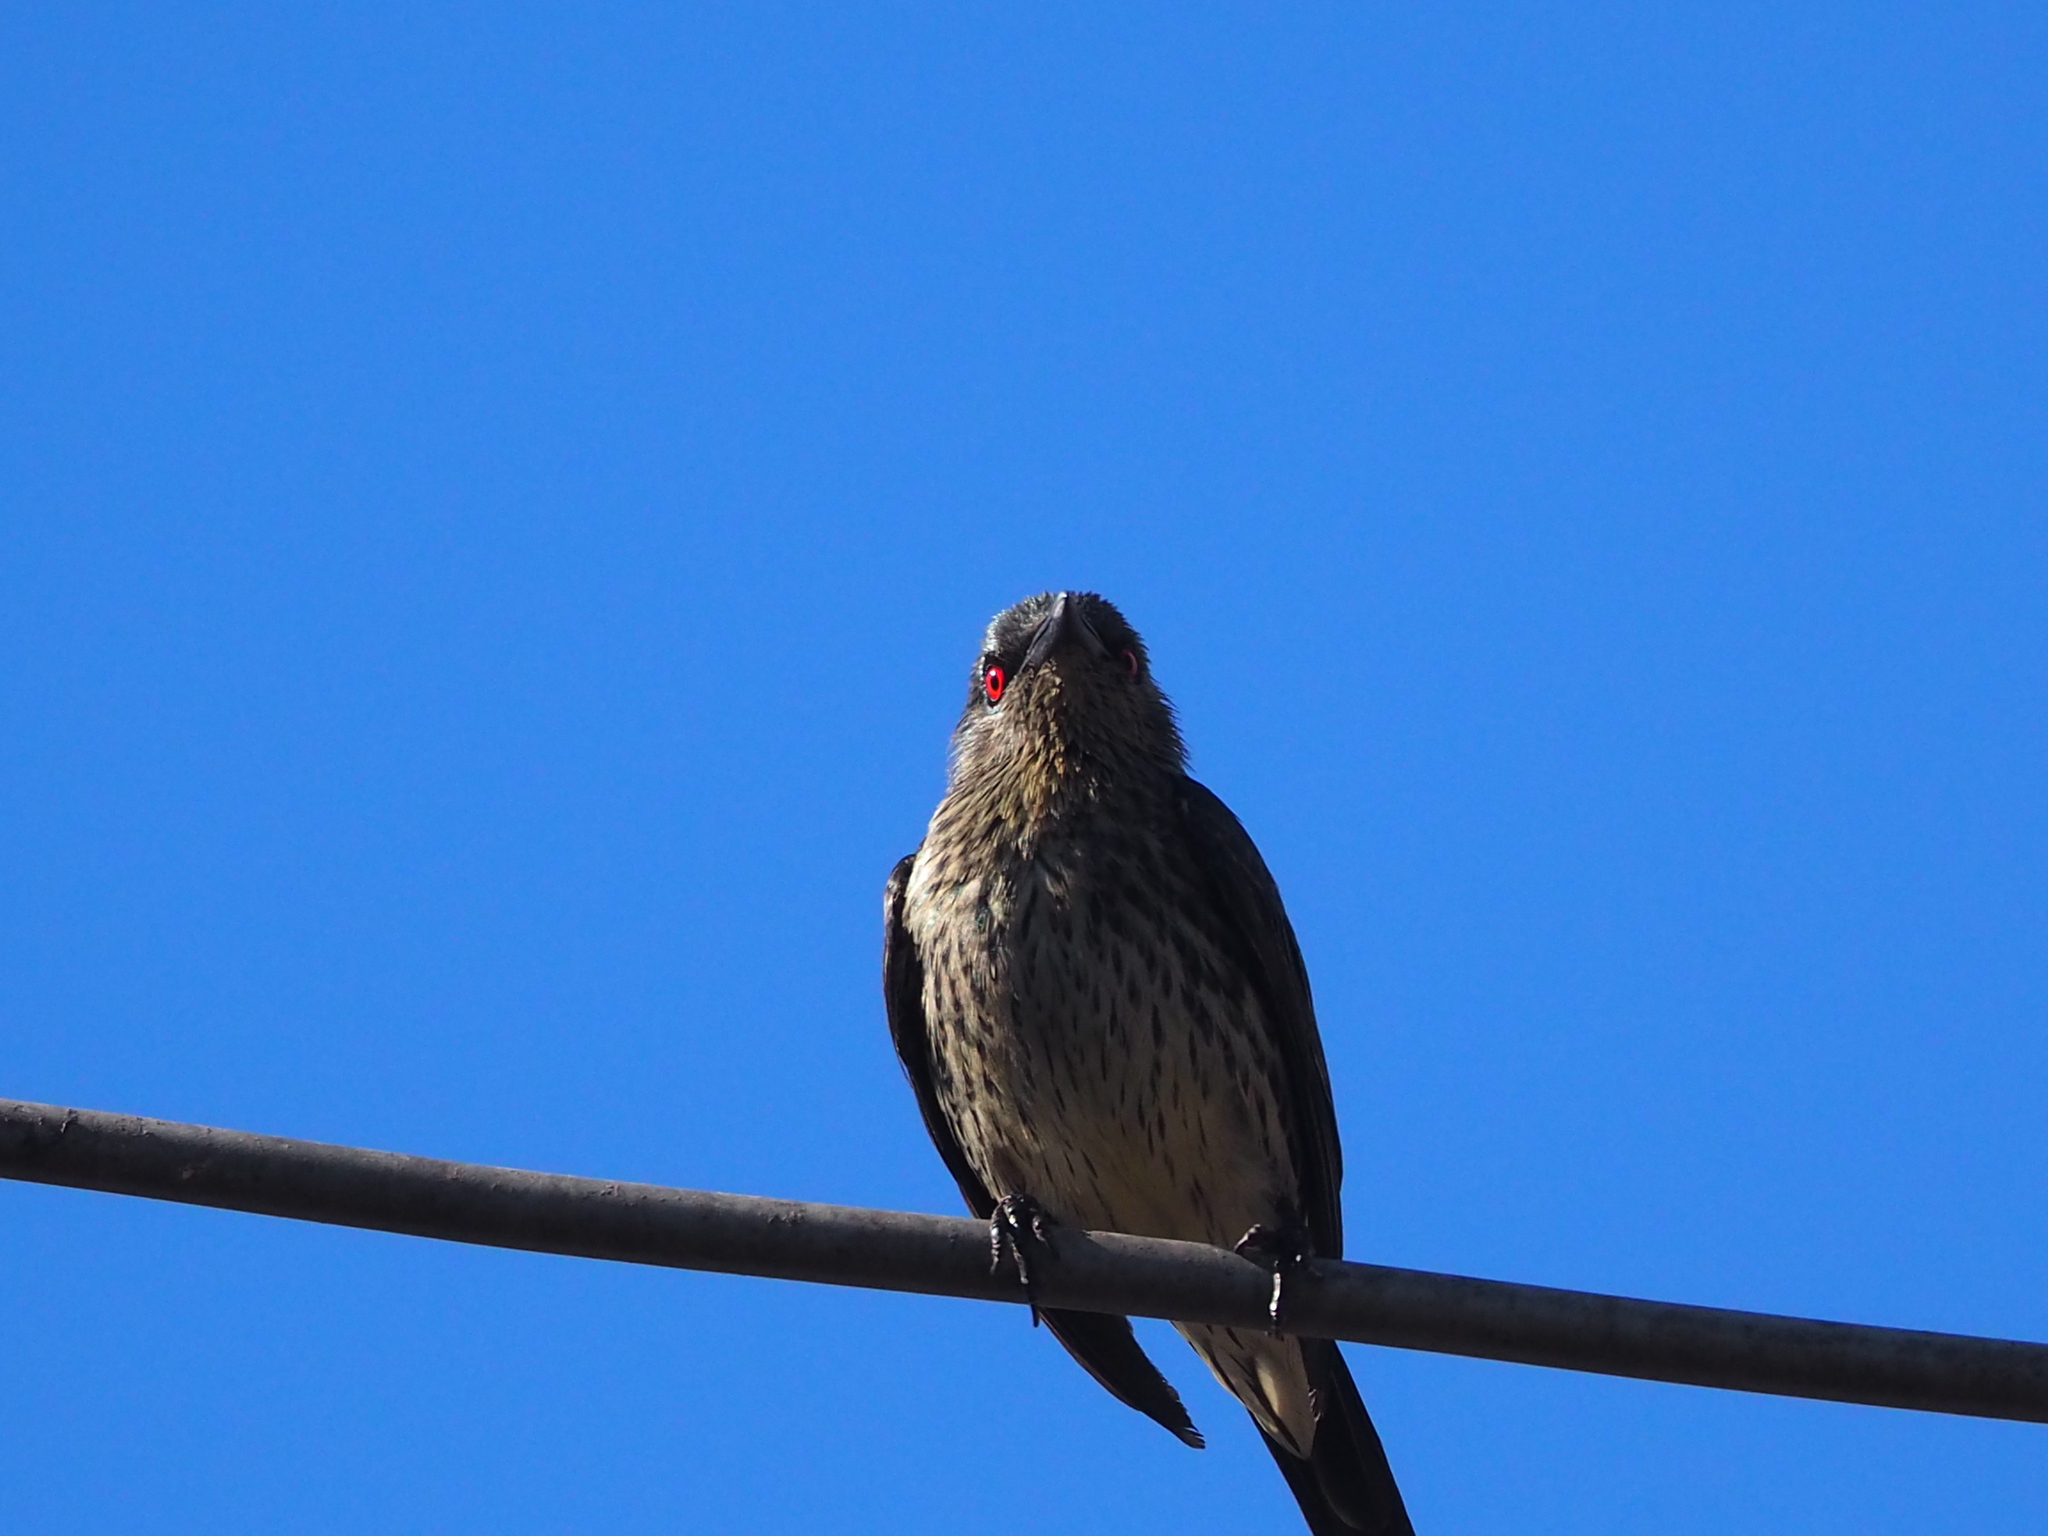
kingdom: Animalia
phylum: Chordata
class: Aves
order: Passeriformes
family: Sturnidae
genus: Aplonis
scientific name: Aplonis panayensis
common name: Asian glossy starling
